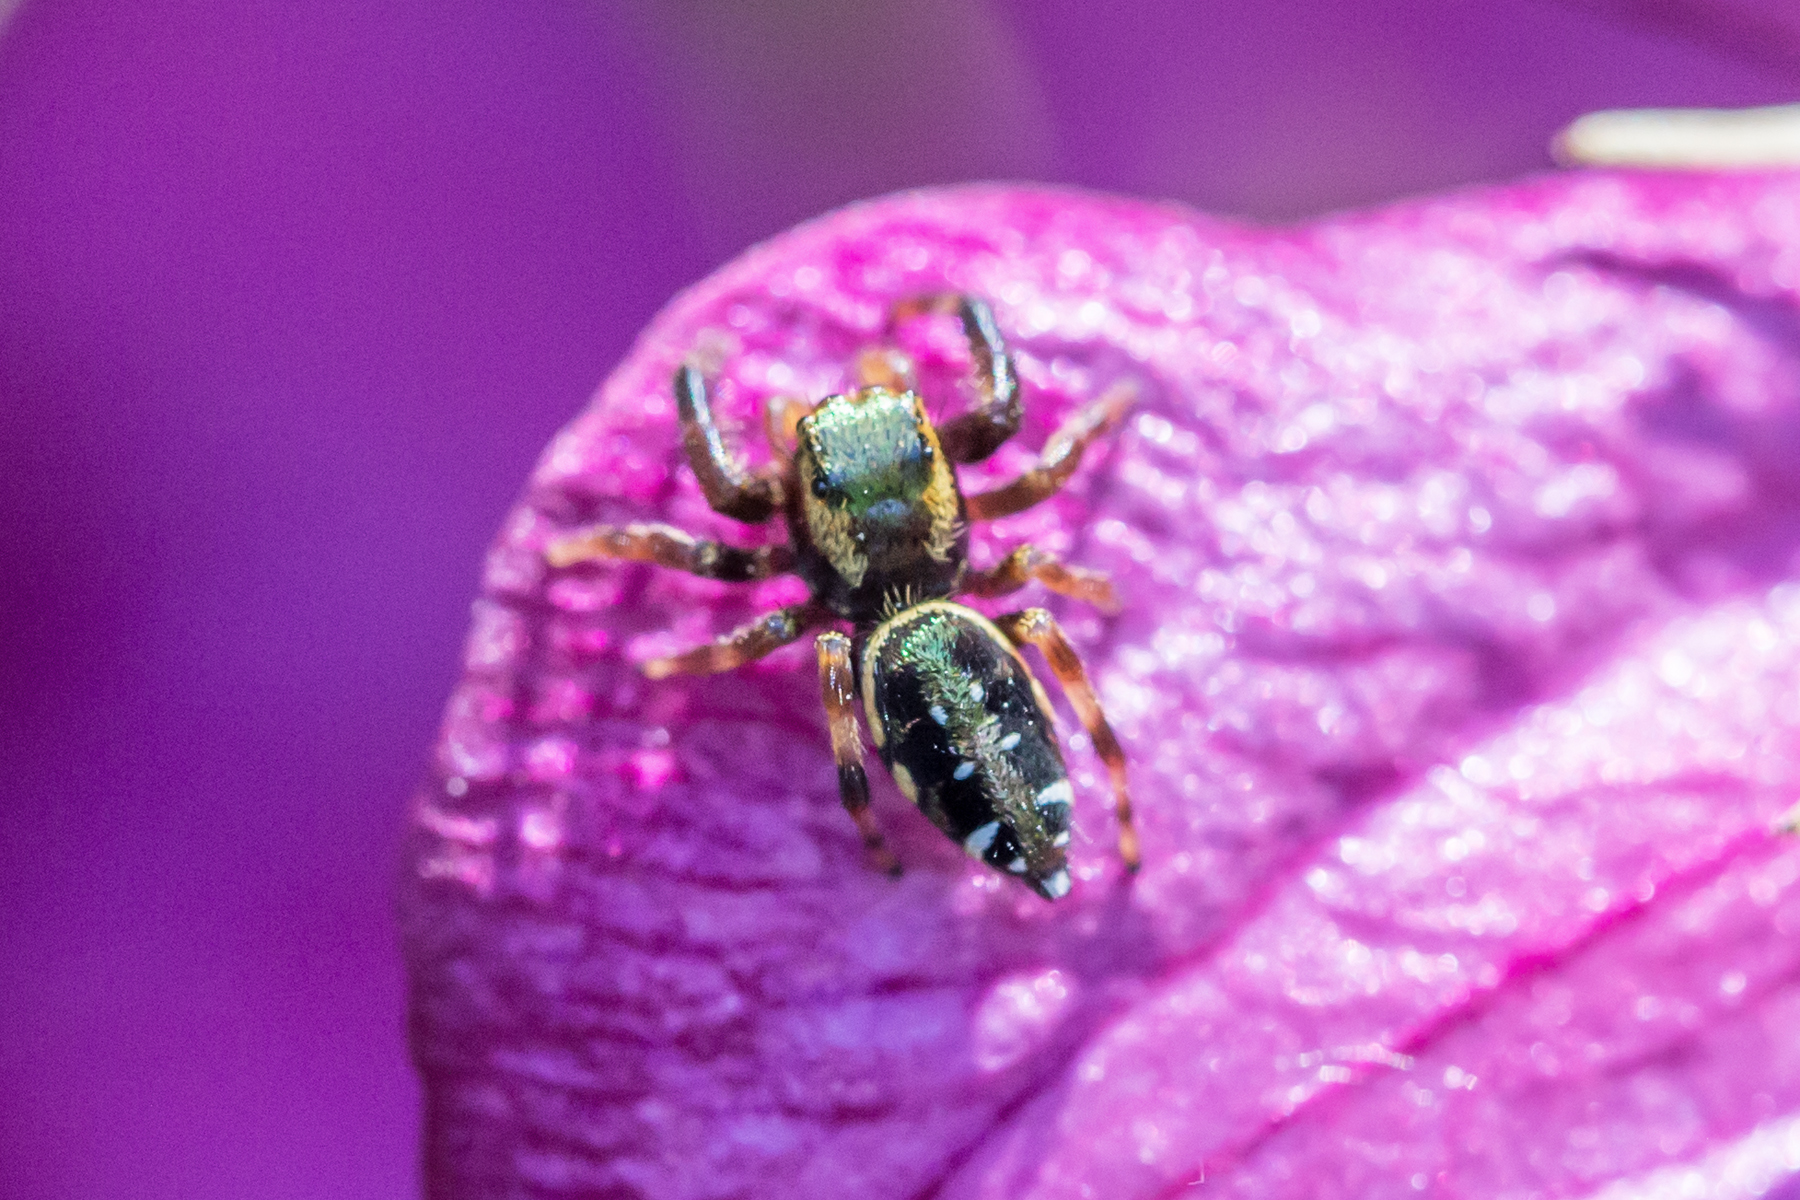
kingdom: Animalia
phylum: Arthropoda
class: Arachnida
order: Araneae
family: Salticidae
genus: Paraphidippus
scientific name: Paraphidippus aurantius
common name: Jumping spiders
